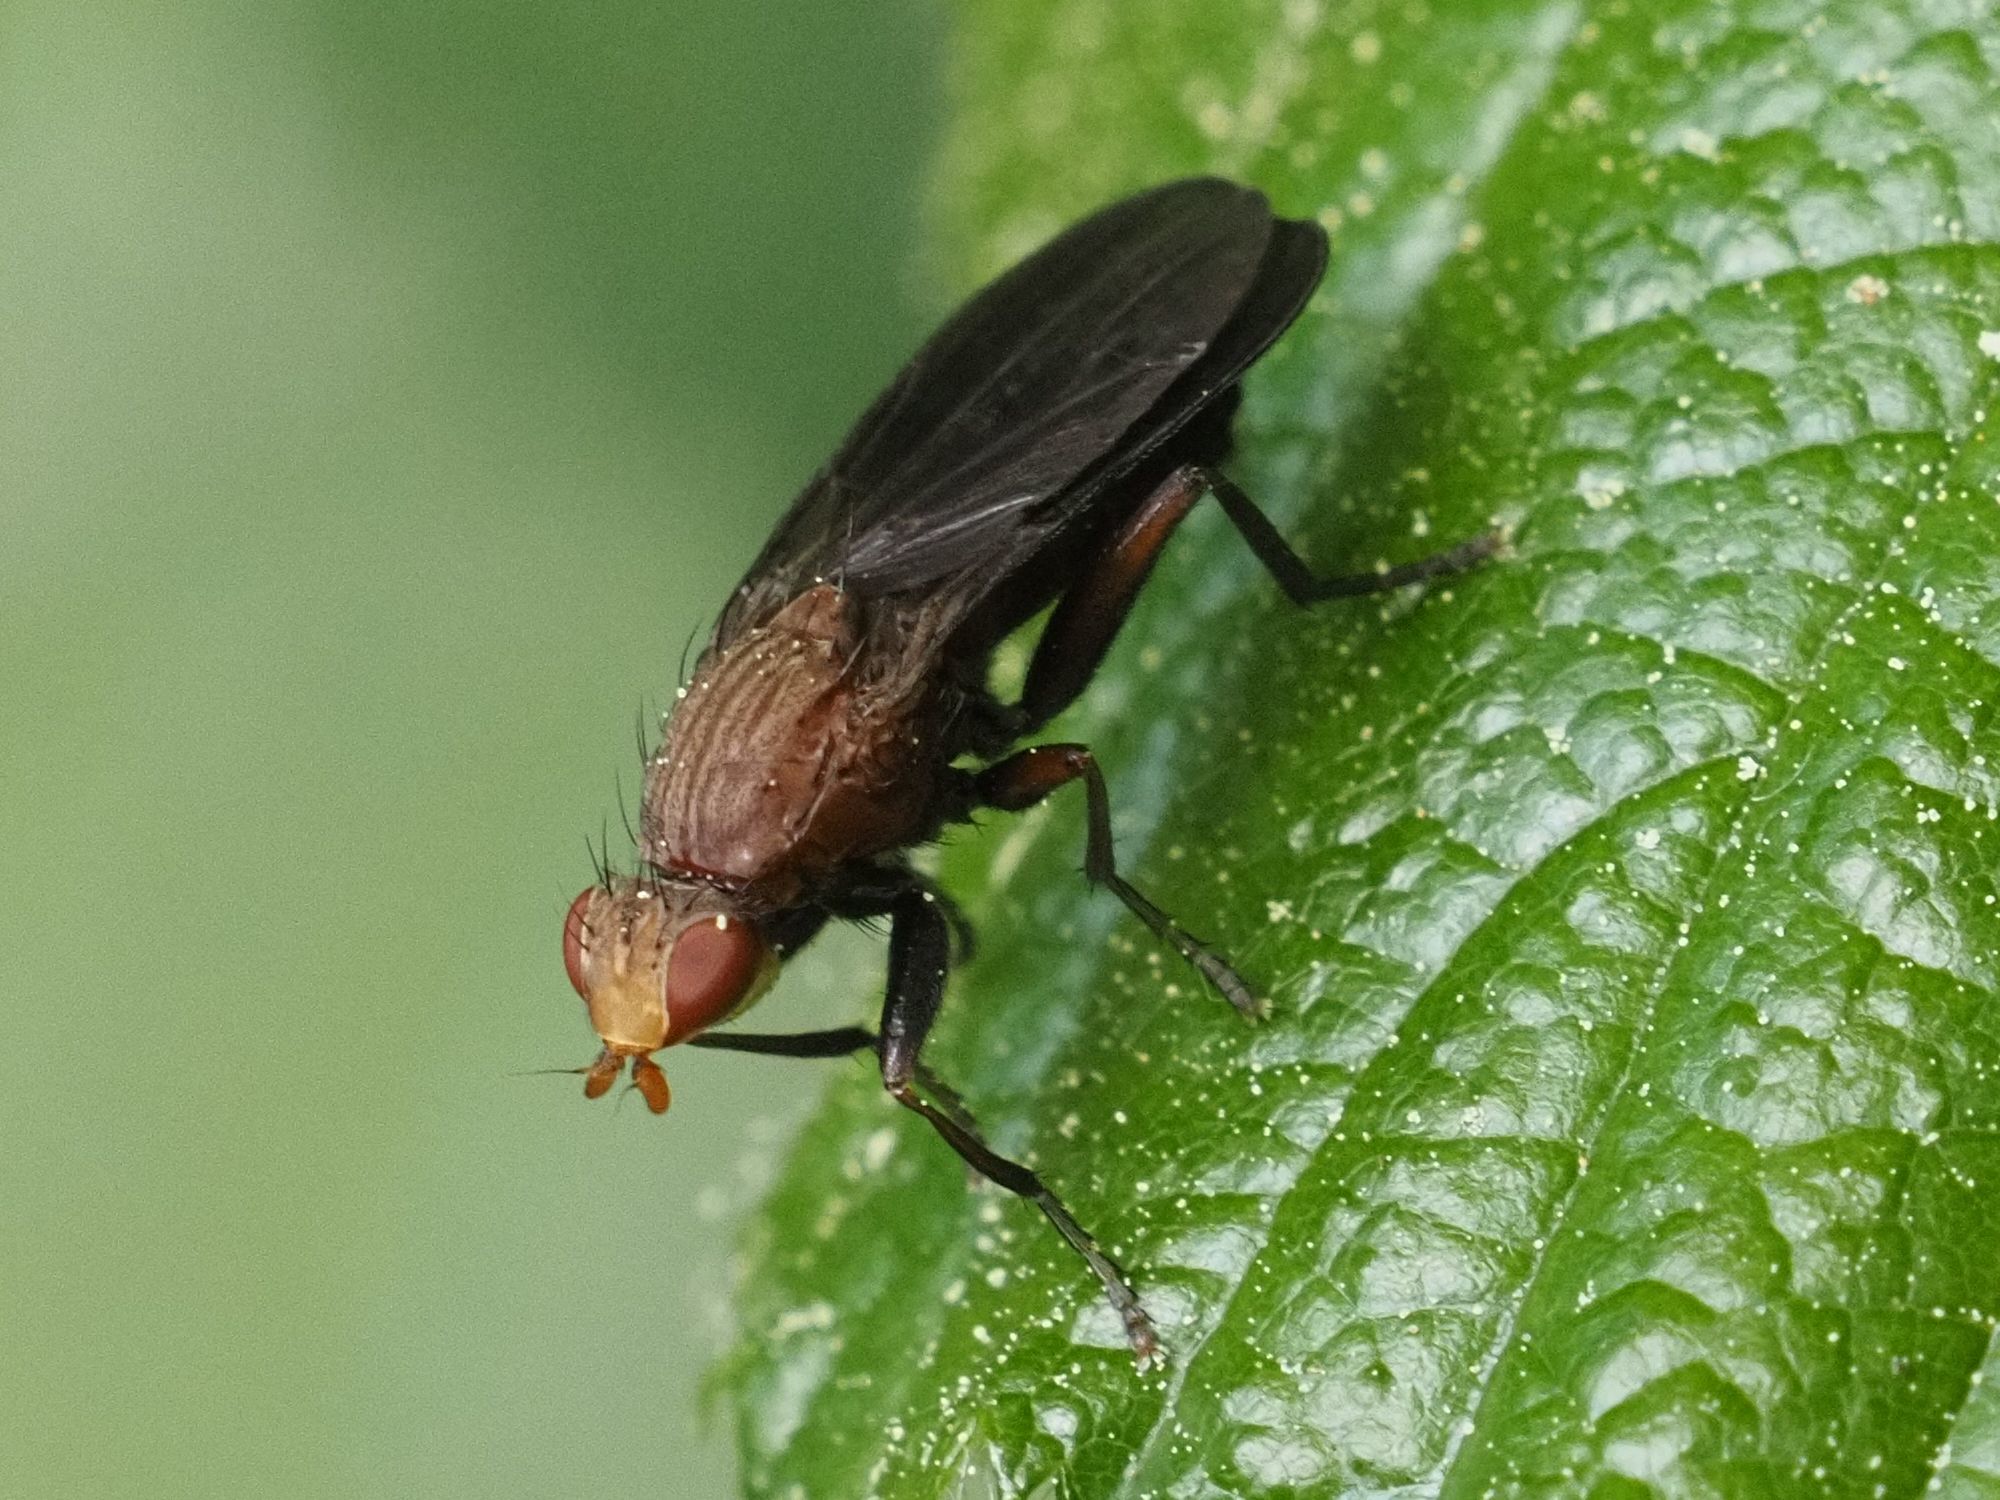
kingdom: Animalia
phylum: Arthropoda
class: Insecta
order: Diptera
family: Phaeomyiidae
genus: Pelidnoptera
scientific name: Pelidnoptera nigripennis
